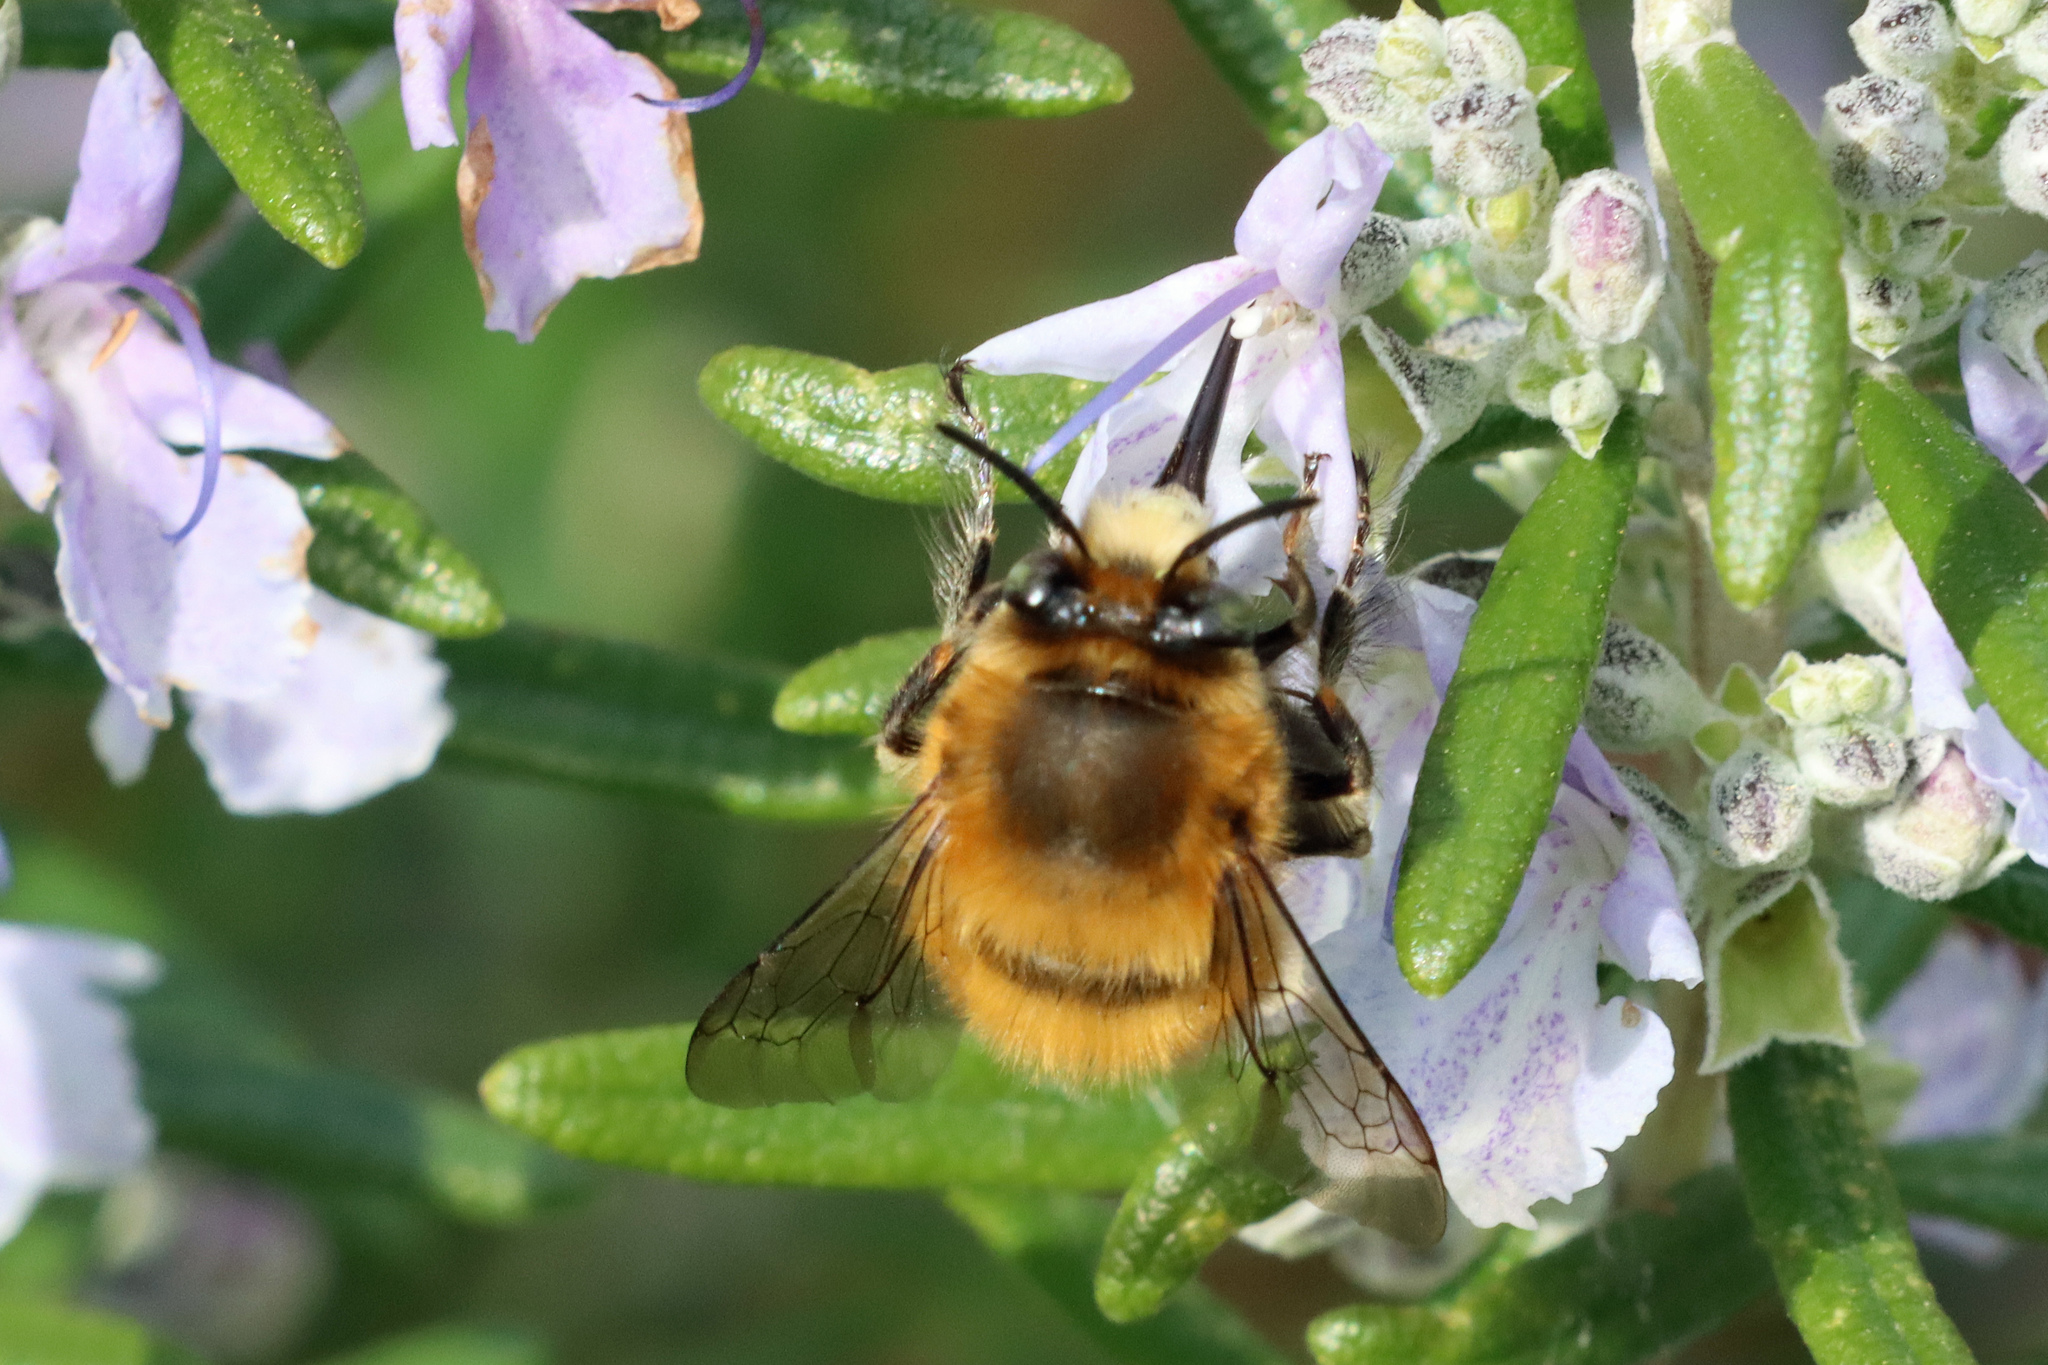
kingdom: Animalia
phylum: Arthropoda
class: Insecta
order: Hymenoptera
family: Apidae
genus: Anthophora
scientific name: Anthophora plumipes
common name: Hairy-footed flower bee
